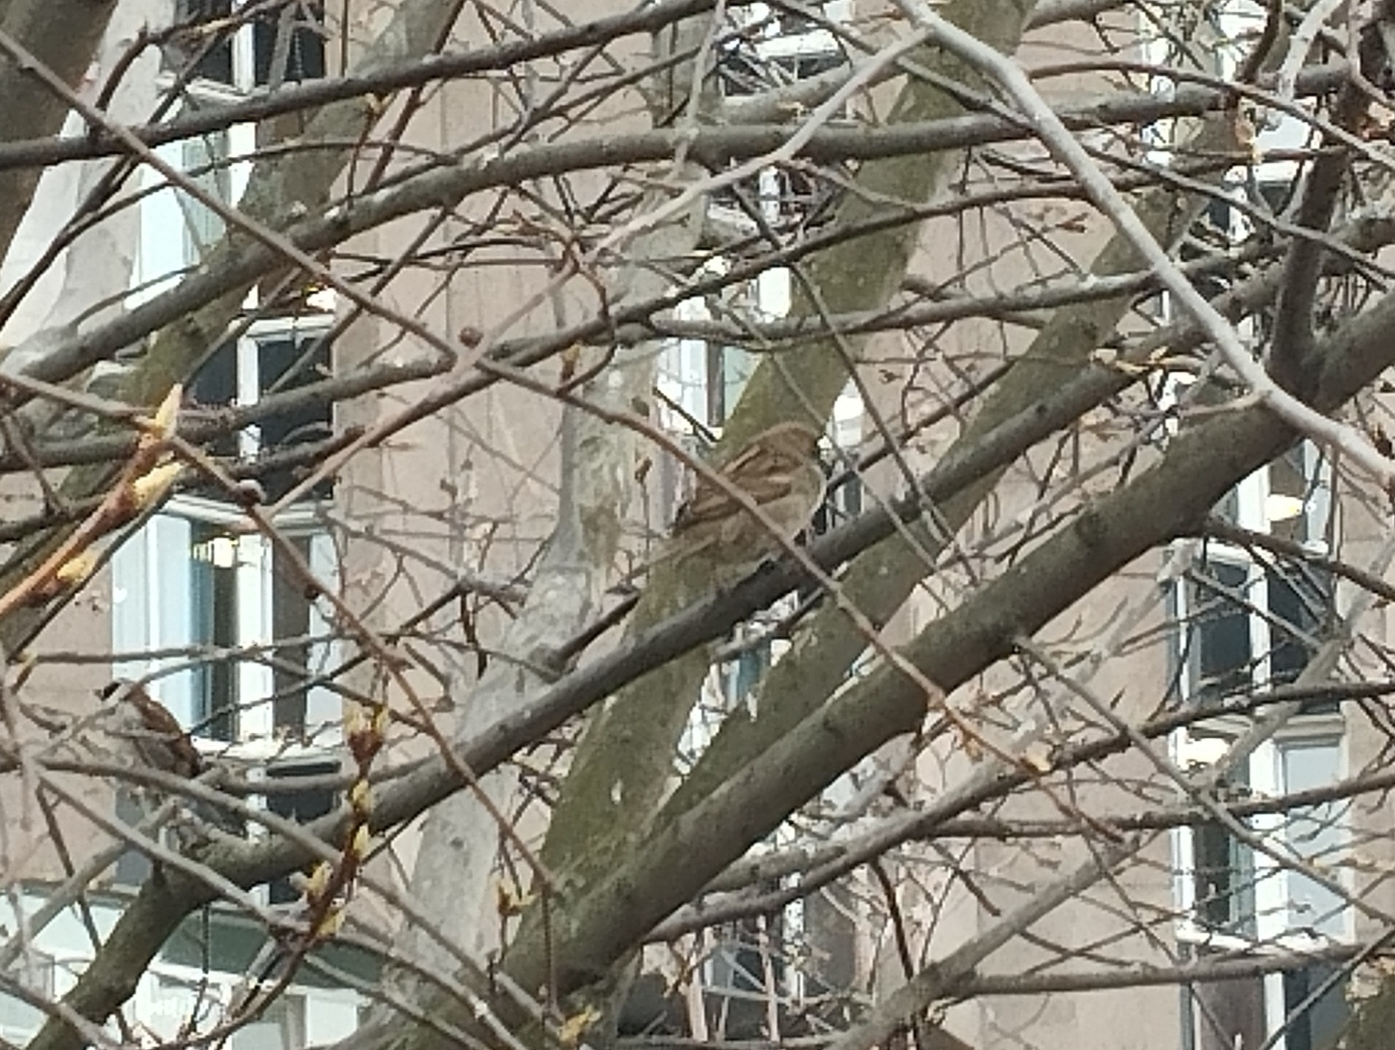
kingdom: Animalia
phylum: Chordata
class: Aves
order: Passeriformes
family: Passeridae
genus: Passer
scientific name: Passer domesticus
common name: House sparrow
